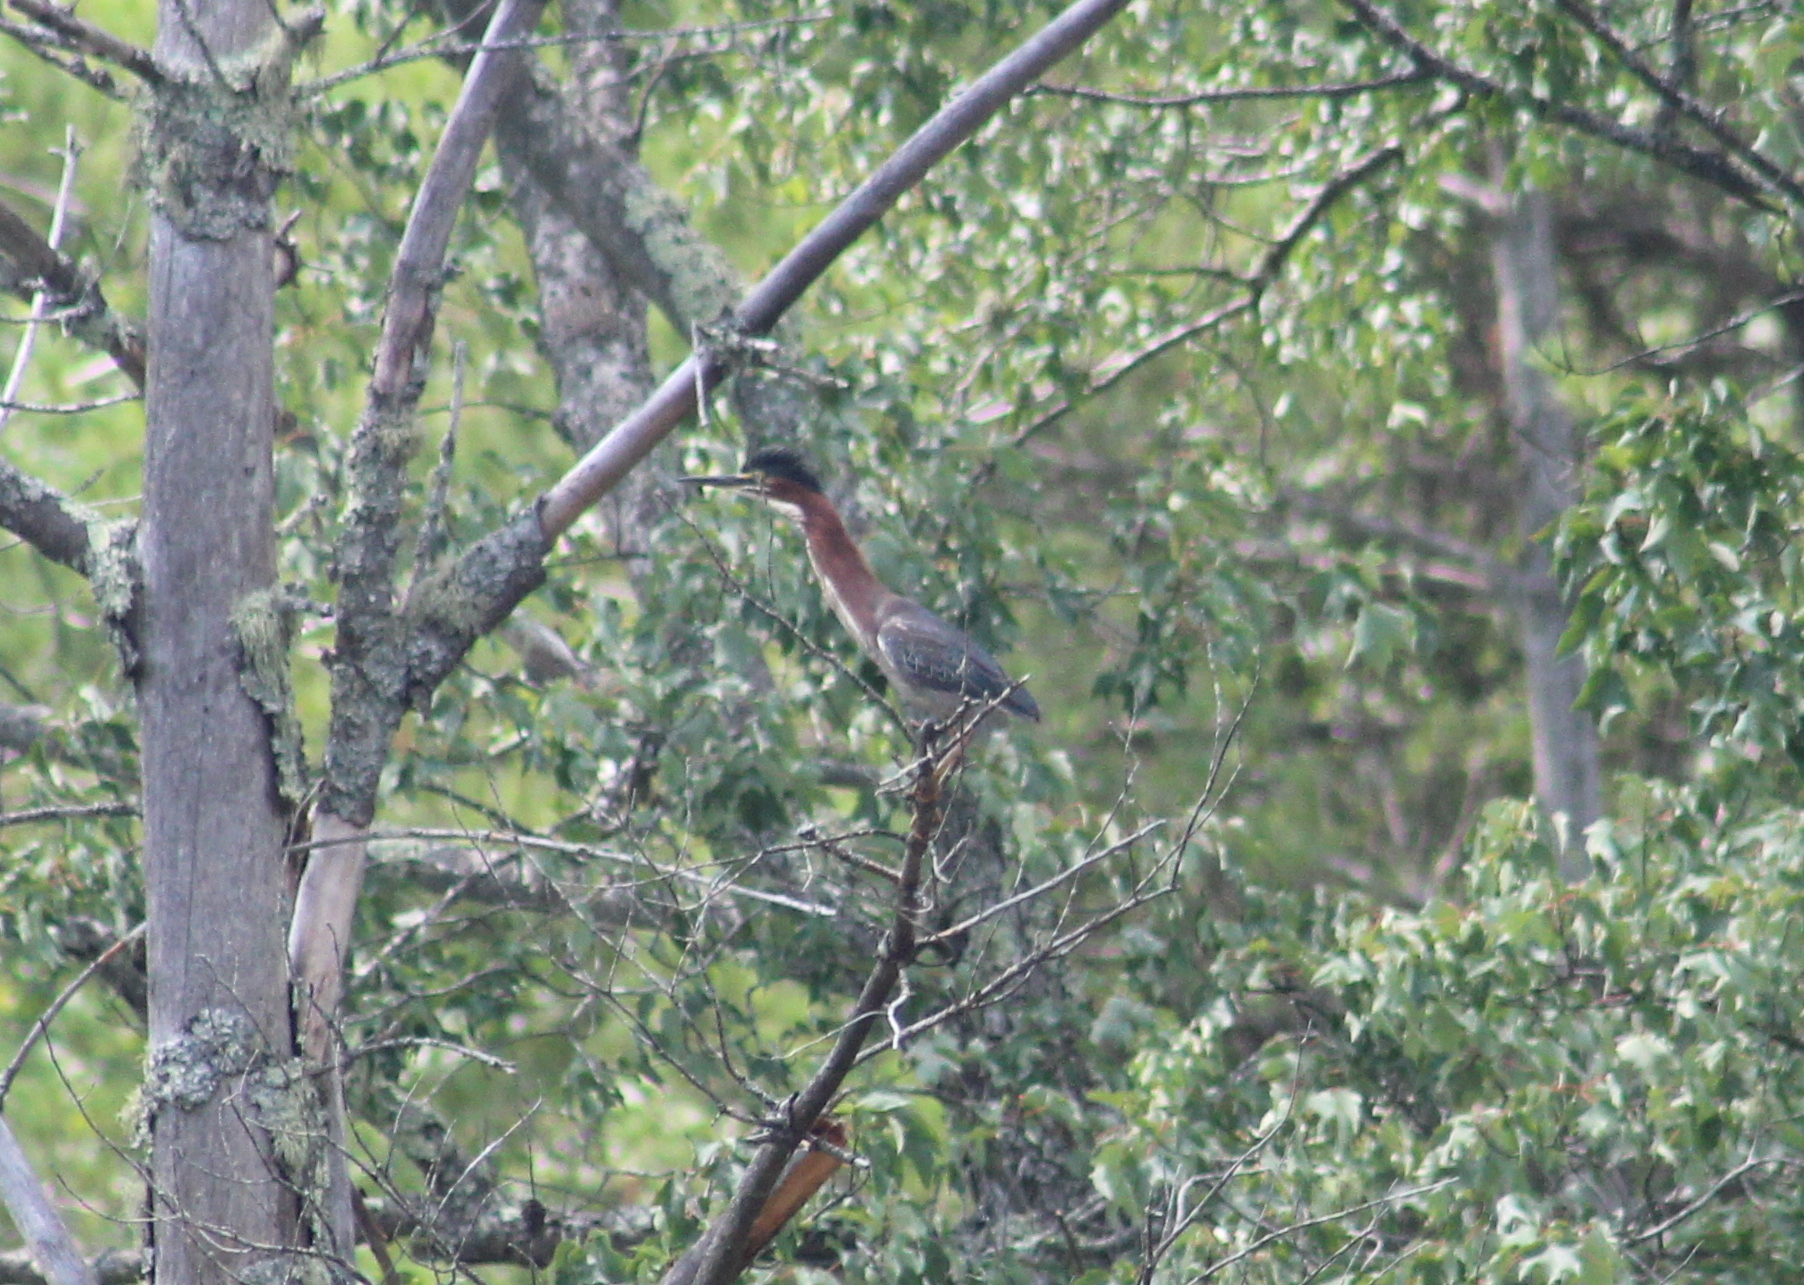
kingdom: Animalia
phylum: Chordata
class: Aves
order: Pelecaniformes
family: Ardeidae
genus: Butorides
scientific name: Butorides virescens
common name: Green heron
